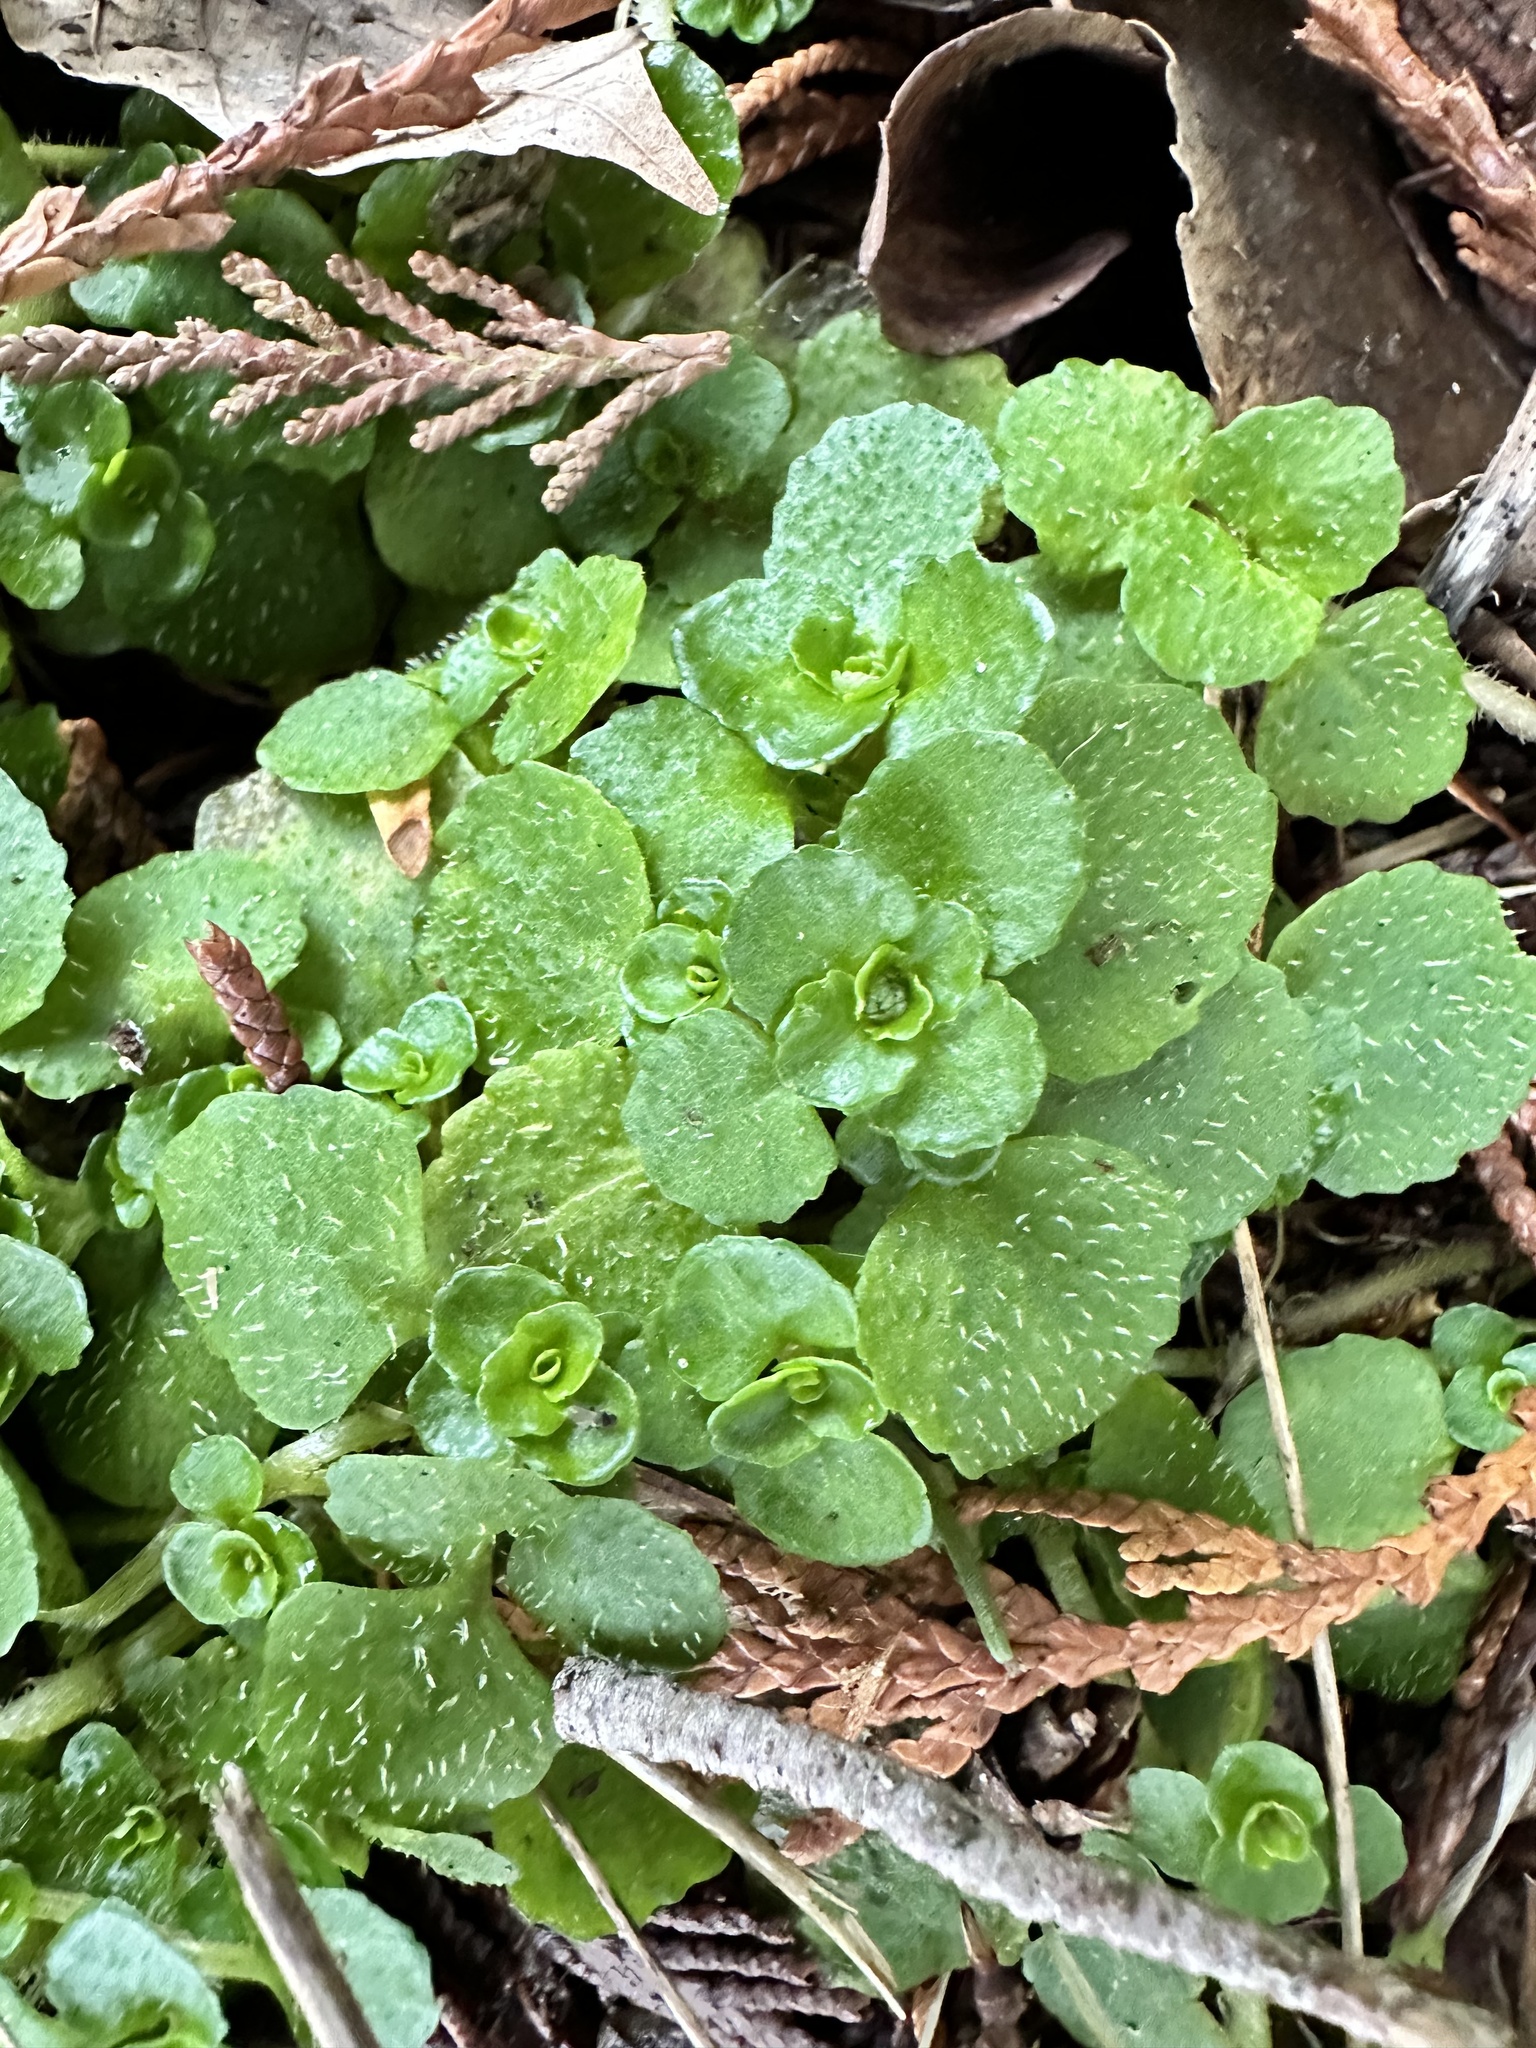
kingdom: Plantae
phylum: Tracheophyta
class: Magnoliopsida
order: Saxifragales
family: Saxifragaceae
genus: Chrysosplenium
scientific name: Chrysosplenium oppositifolium
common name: Opposite-leaved golden-saxifrage
